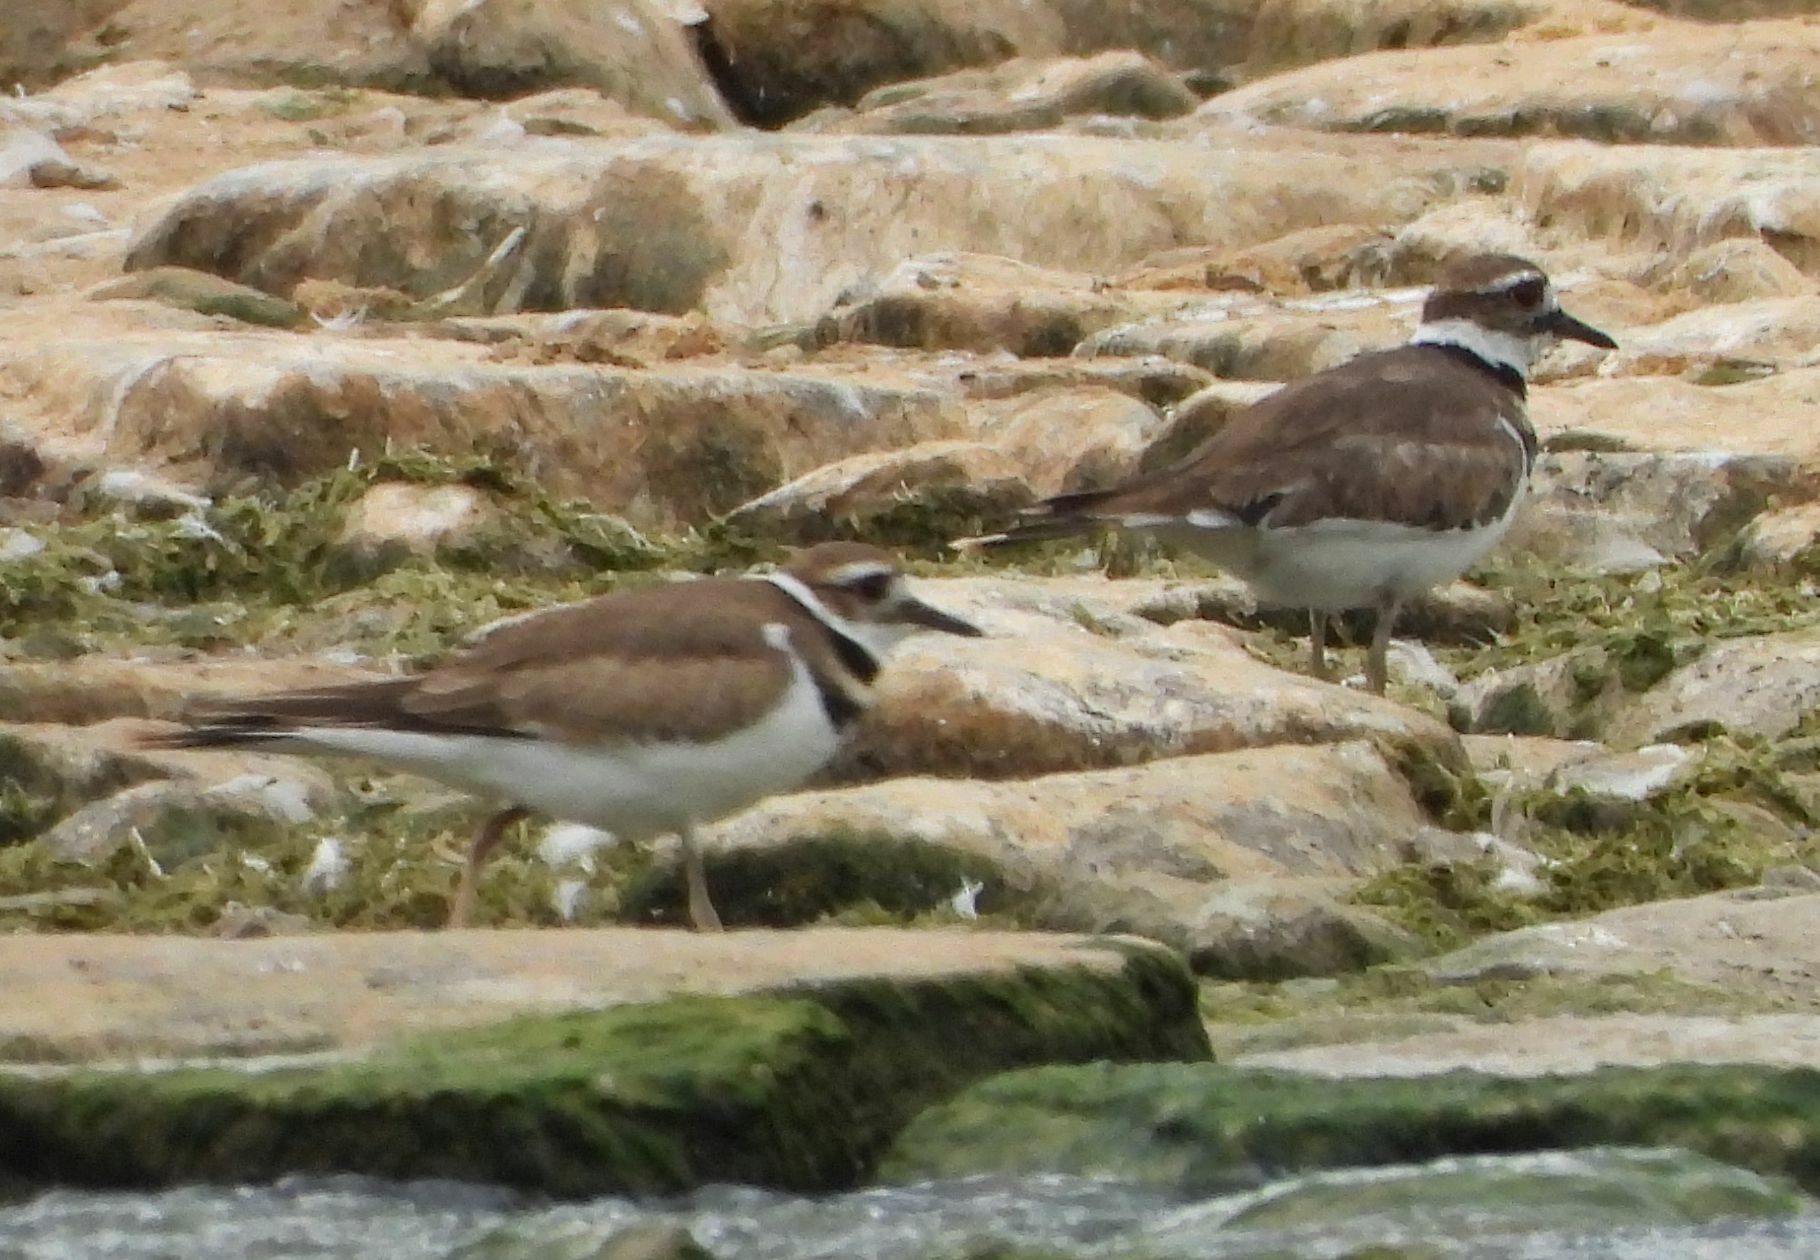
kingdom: Animalia
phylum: Chordata
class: Aves
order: Charadriiformes
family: Charadriidae
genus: Charadrius
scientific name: Charadrius vociferus
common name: Killdeer
